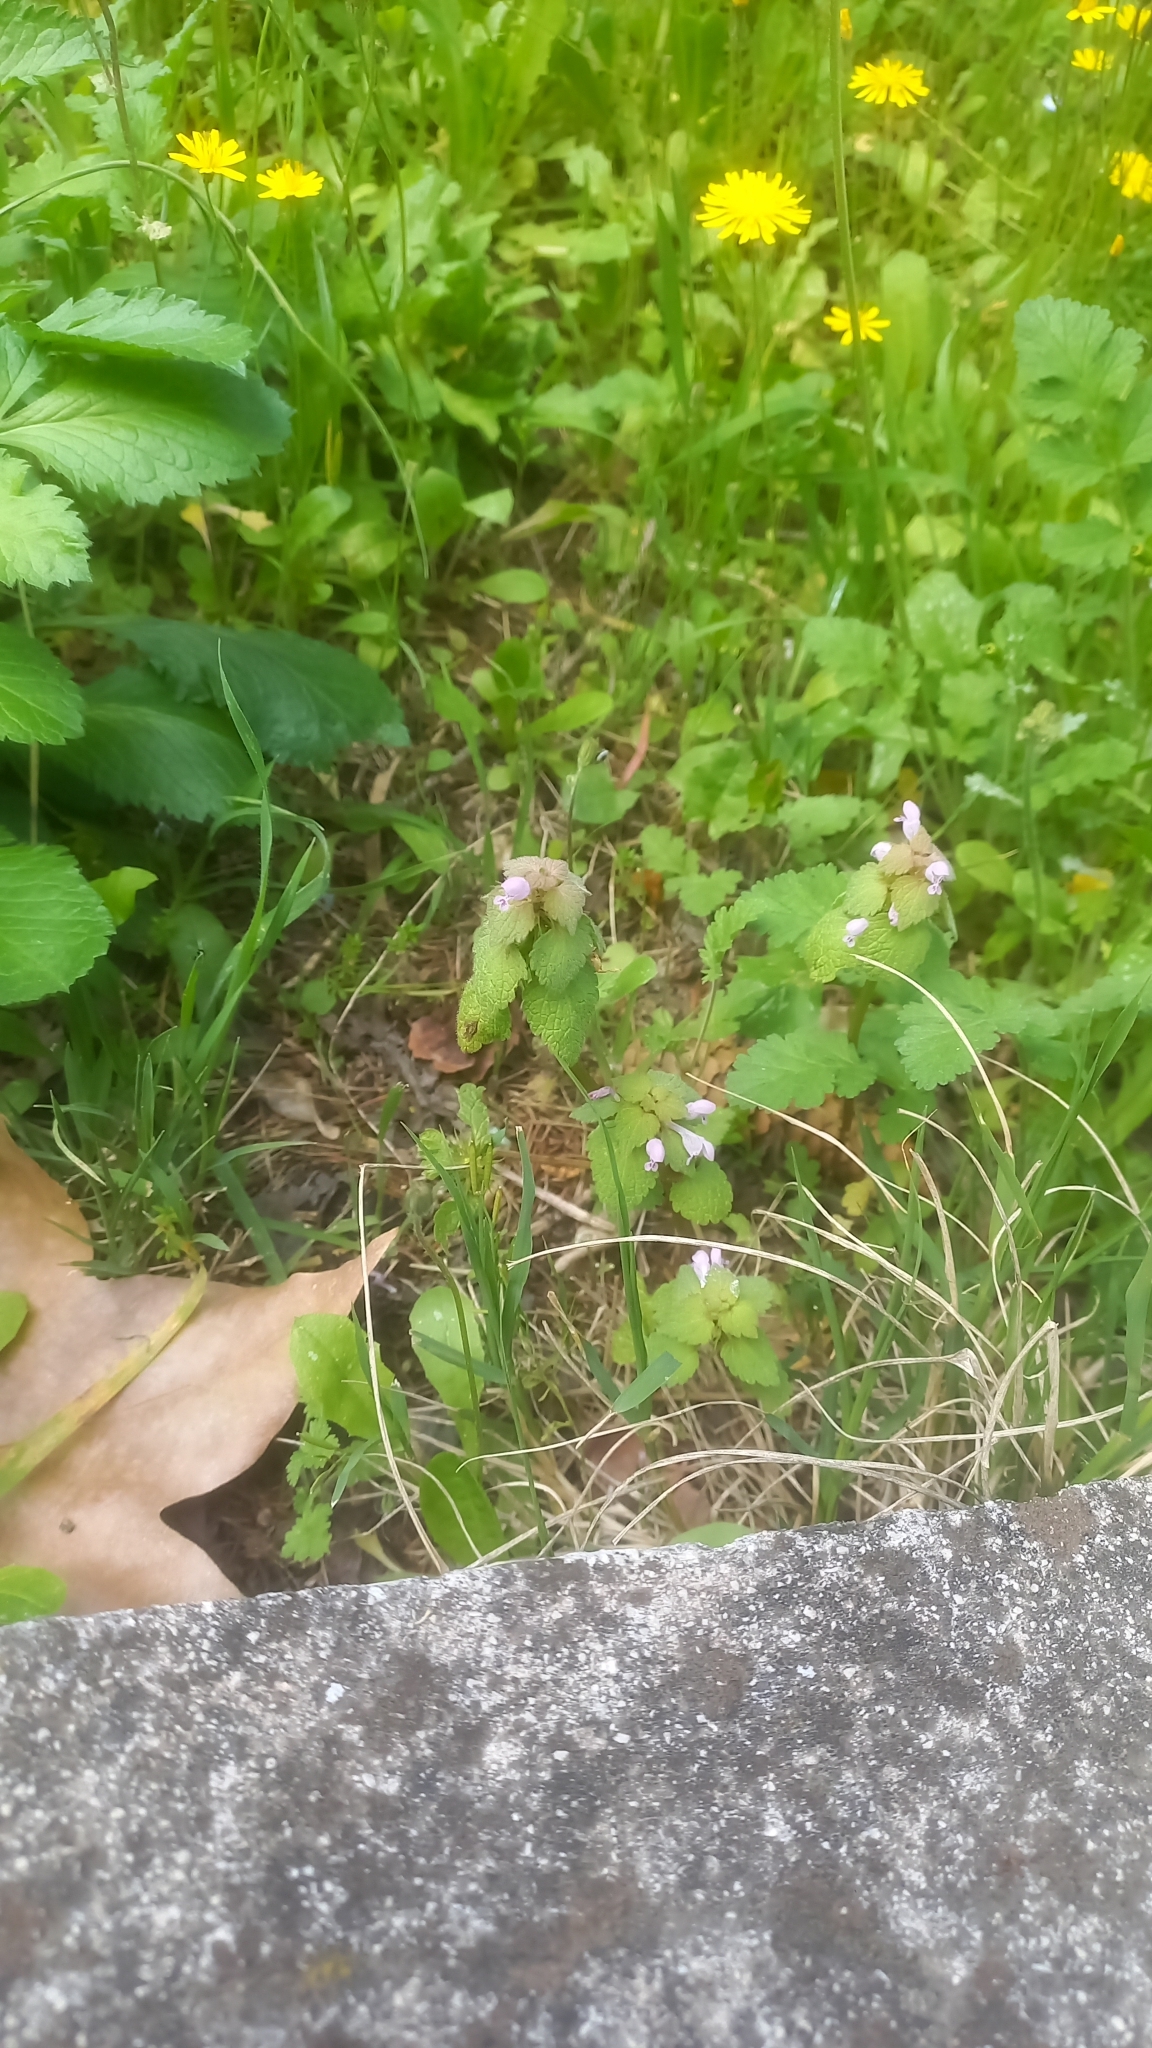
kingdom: Plantae
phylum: Tracheophyta
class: Magnoliopsida
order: Lamiales
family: Lamiaceae
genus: Lamium
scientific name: Lamium purpureum
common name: Red dead-nettle
